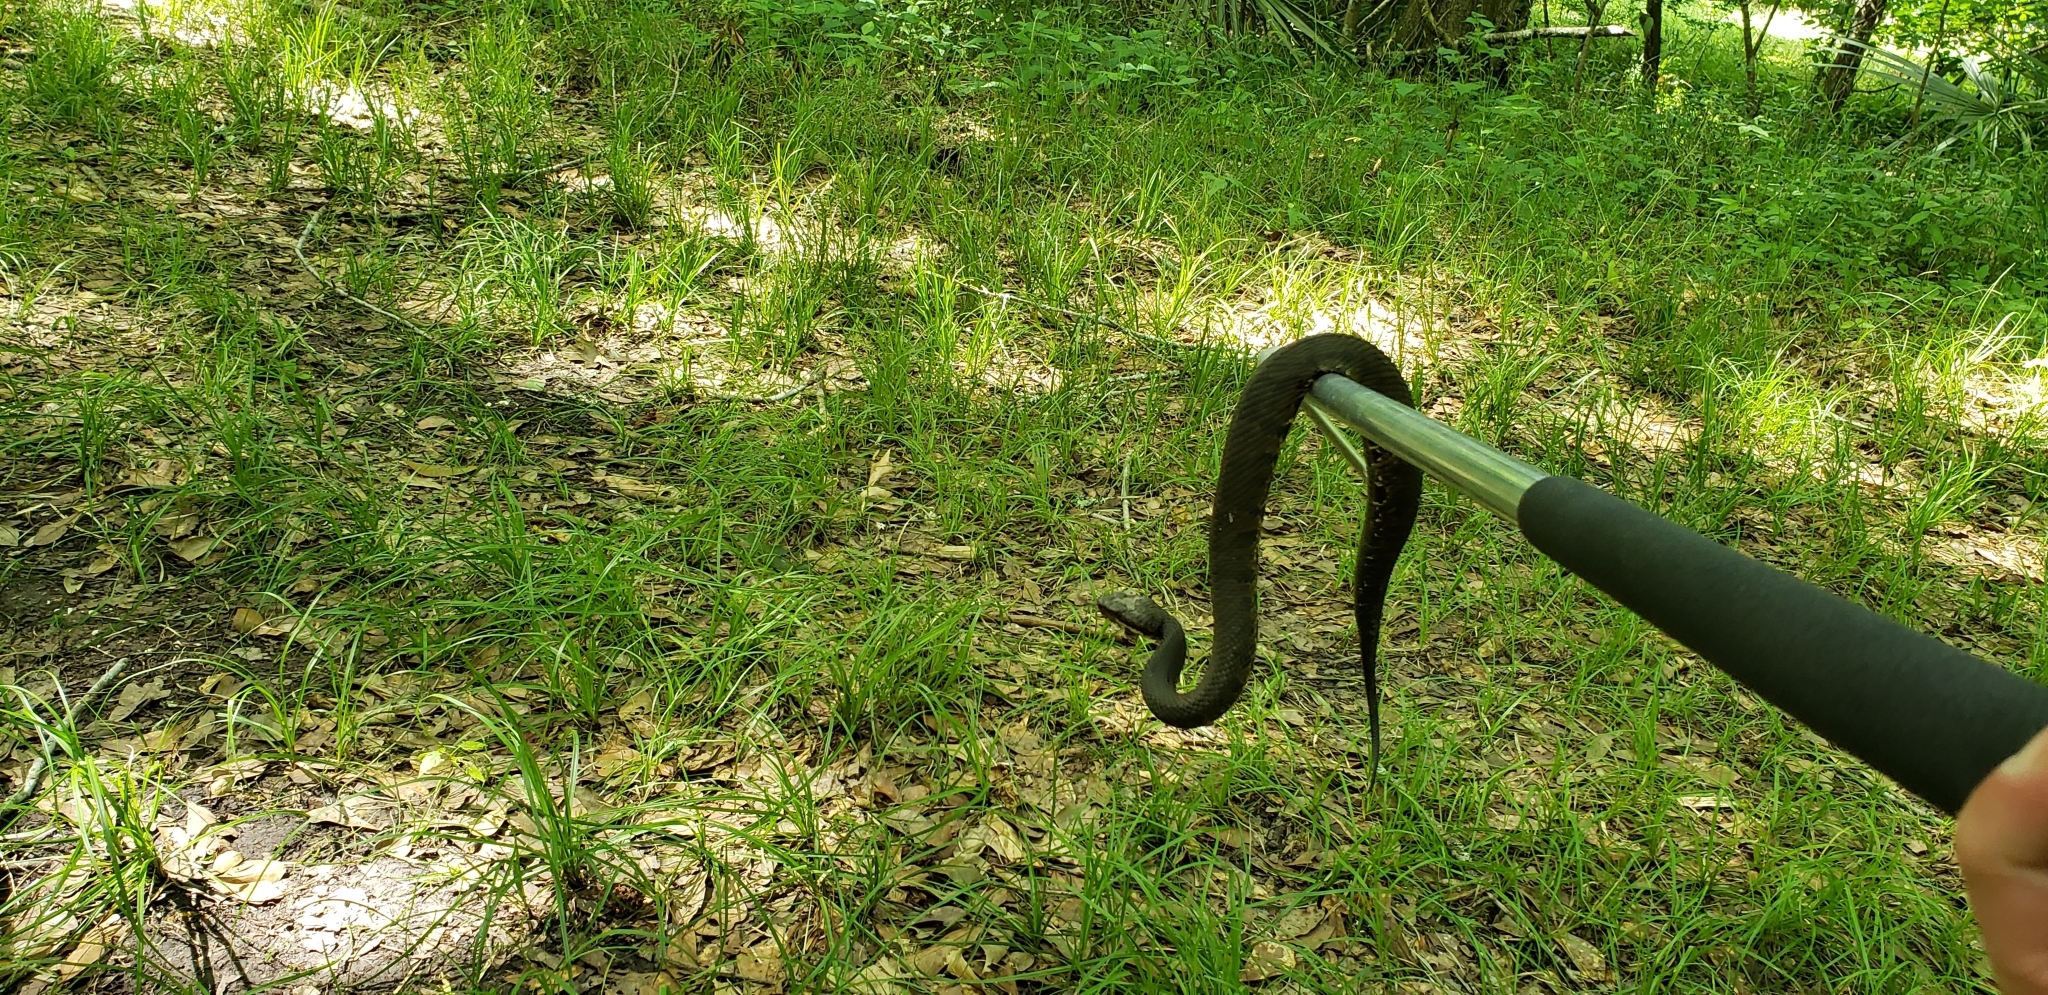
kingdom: Animalia
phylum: Chordata
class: Squamata
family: Viperidae
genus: Agkistrodon
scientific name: Agkistrodon piscivorus
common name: Cottonmouth
